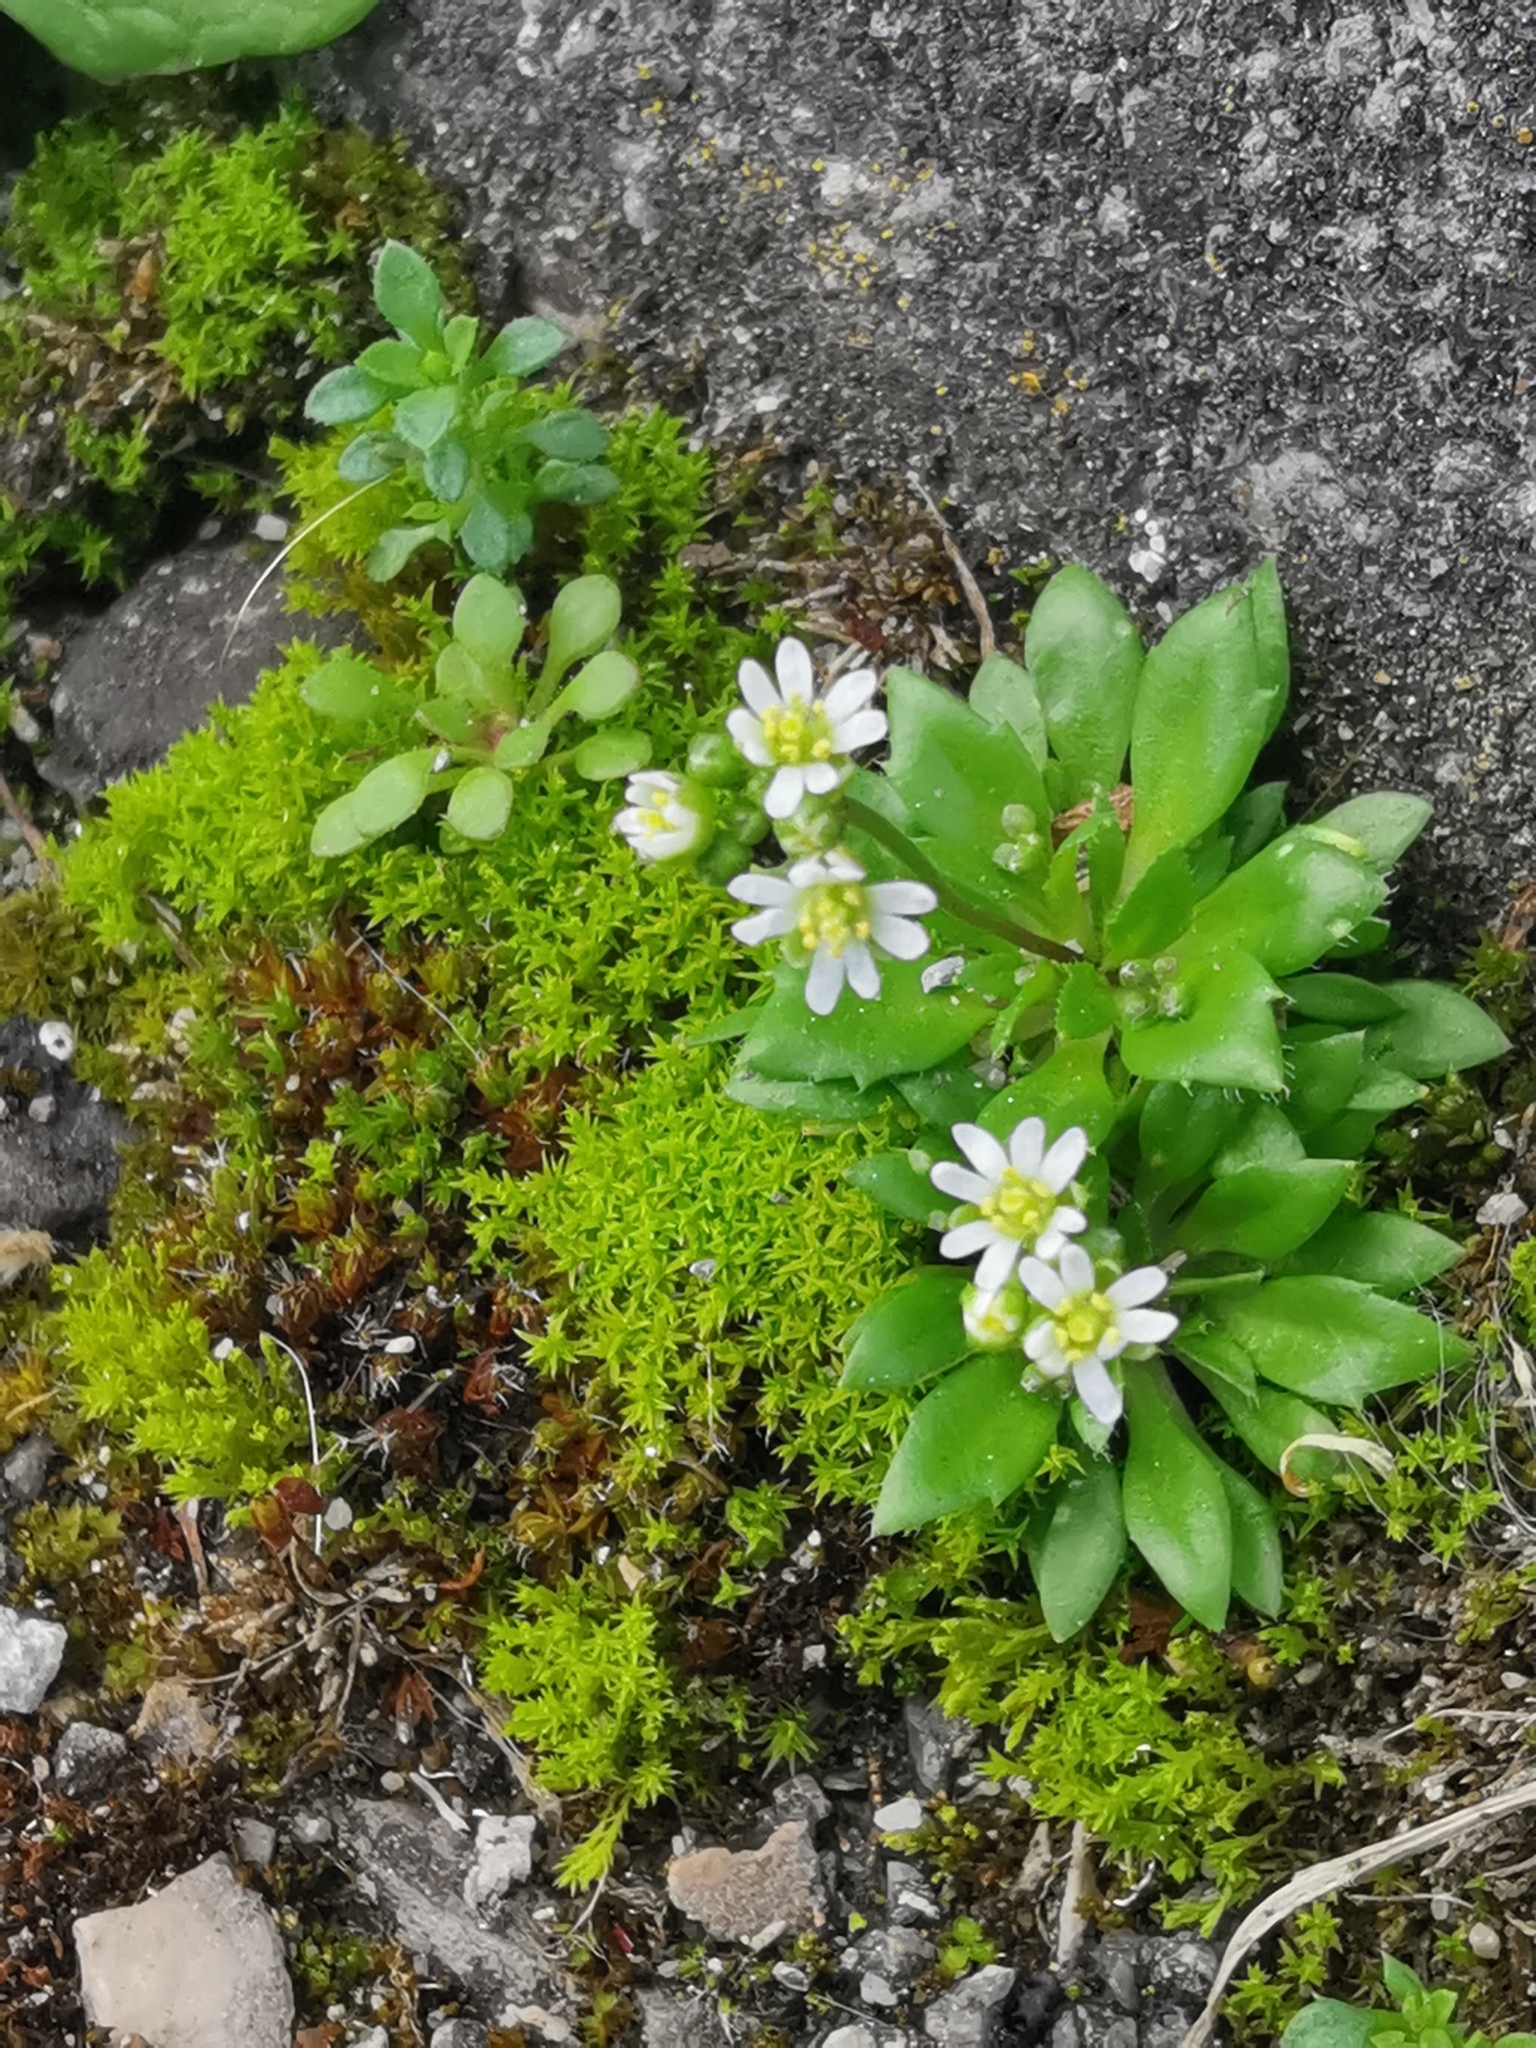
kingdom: Plantae
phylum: Tracheophyta
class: Magnoliopsida
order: Brassicales
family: Brassicaceae
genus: Draba
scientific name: Draba verna
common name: Spring draba
